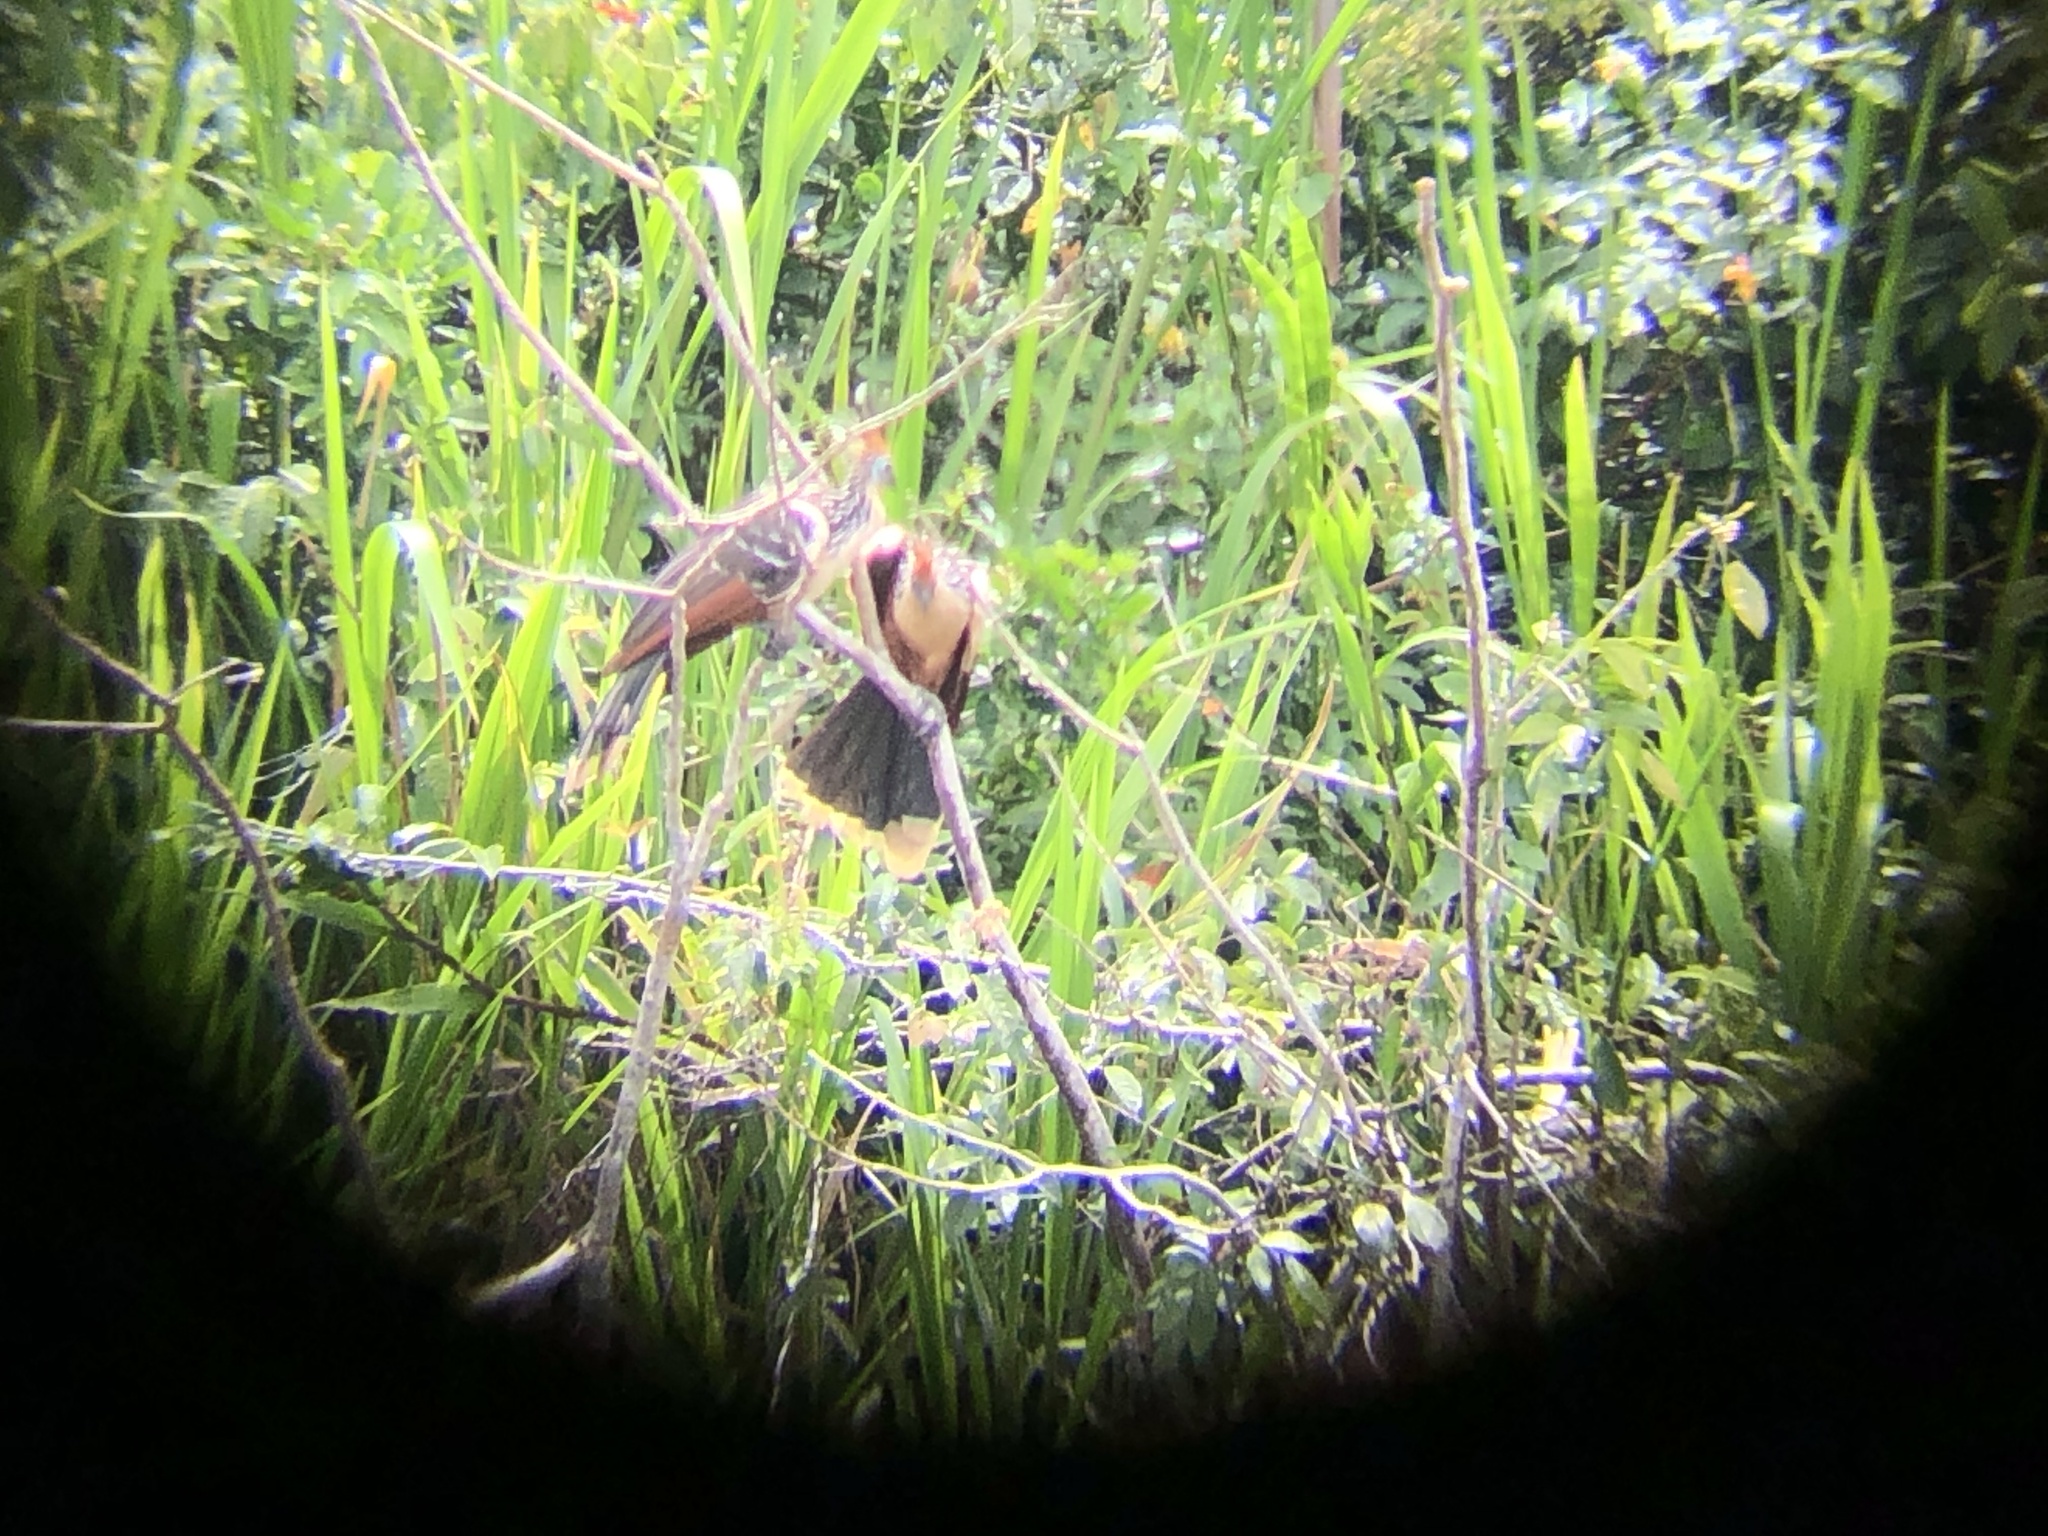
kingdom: Animalia
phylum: Chordata
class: Aves
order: Opisthocomiformes
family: Opisthocomidae
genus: Opisthocomus
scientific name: Opisthocomus hoazin
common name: Hoatzin
